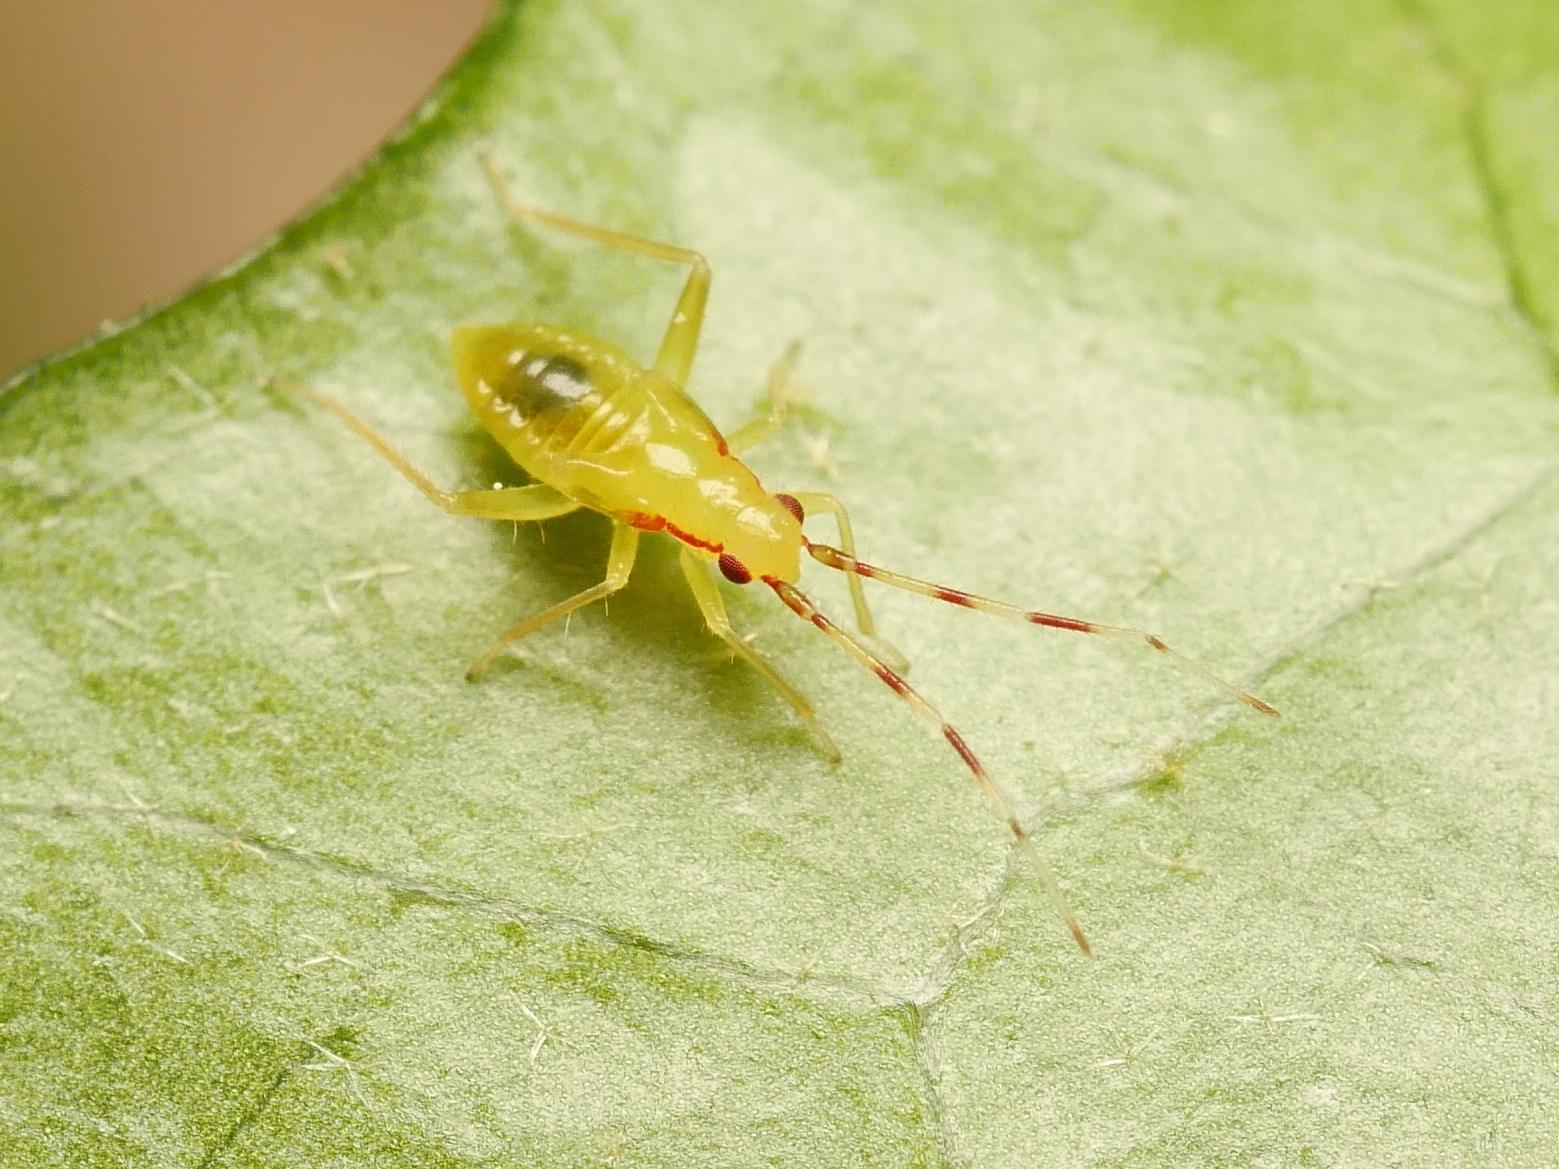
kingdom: Animalia
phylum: Arthropoda
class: Insecta
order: Hemiptera
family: Miridae
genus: Campyloneura
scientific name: Campyloneura virgula
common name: Predatory bug
